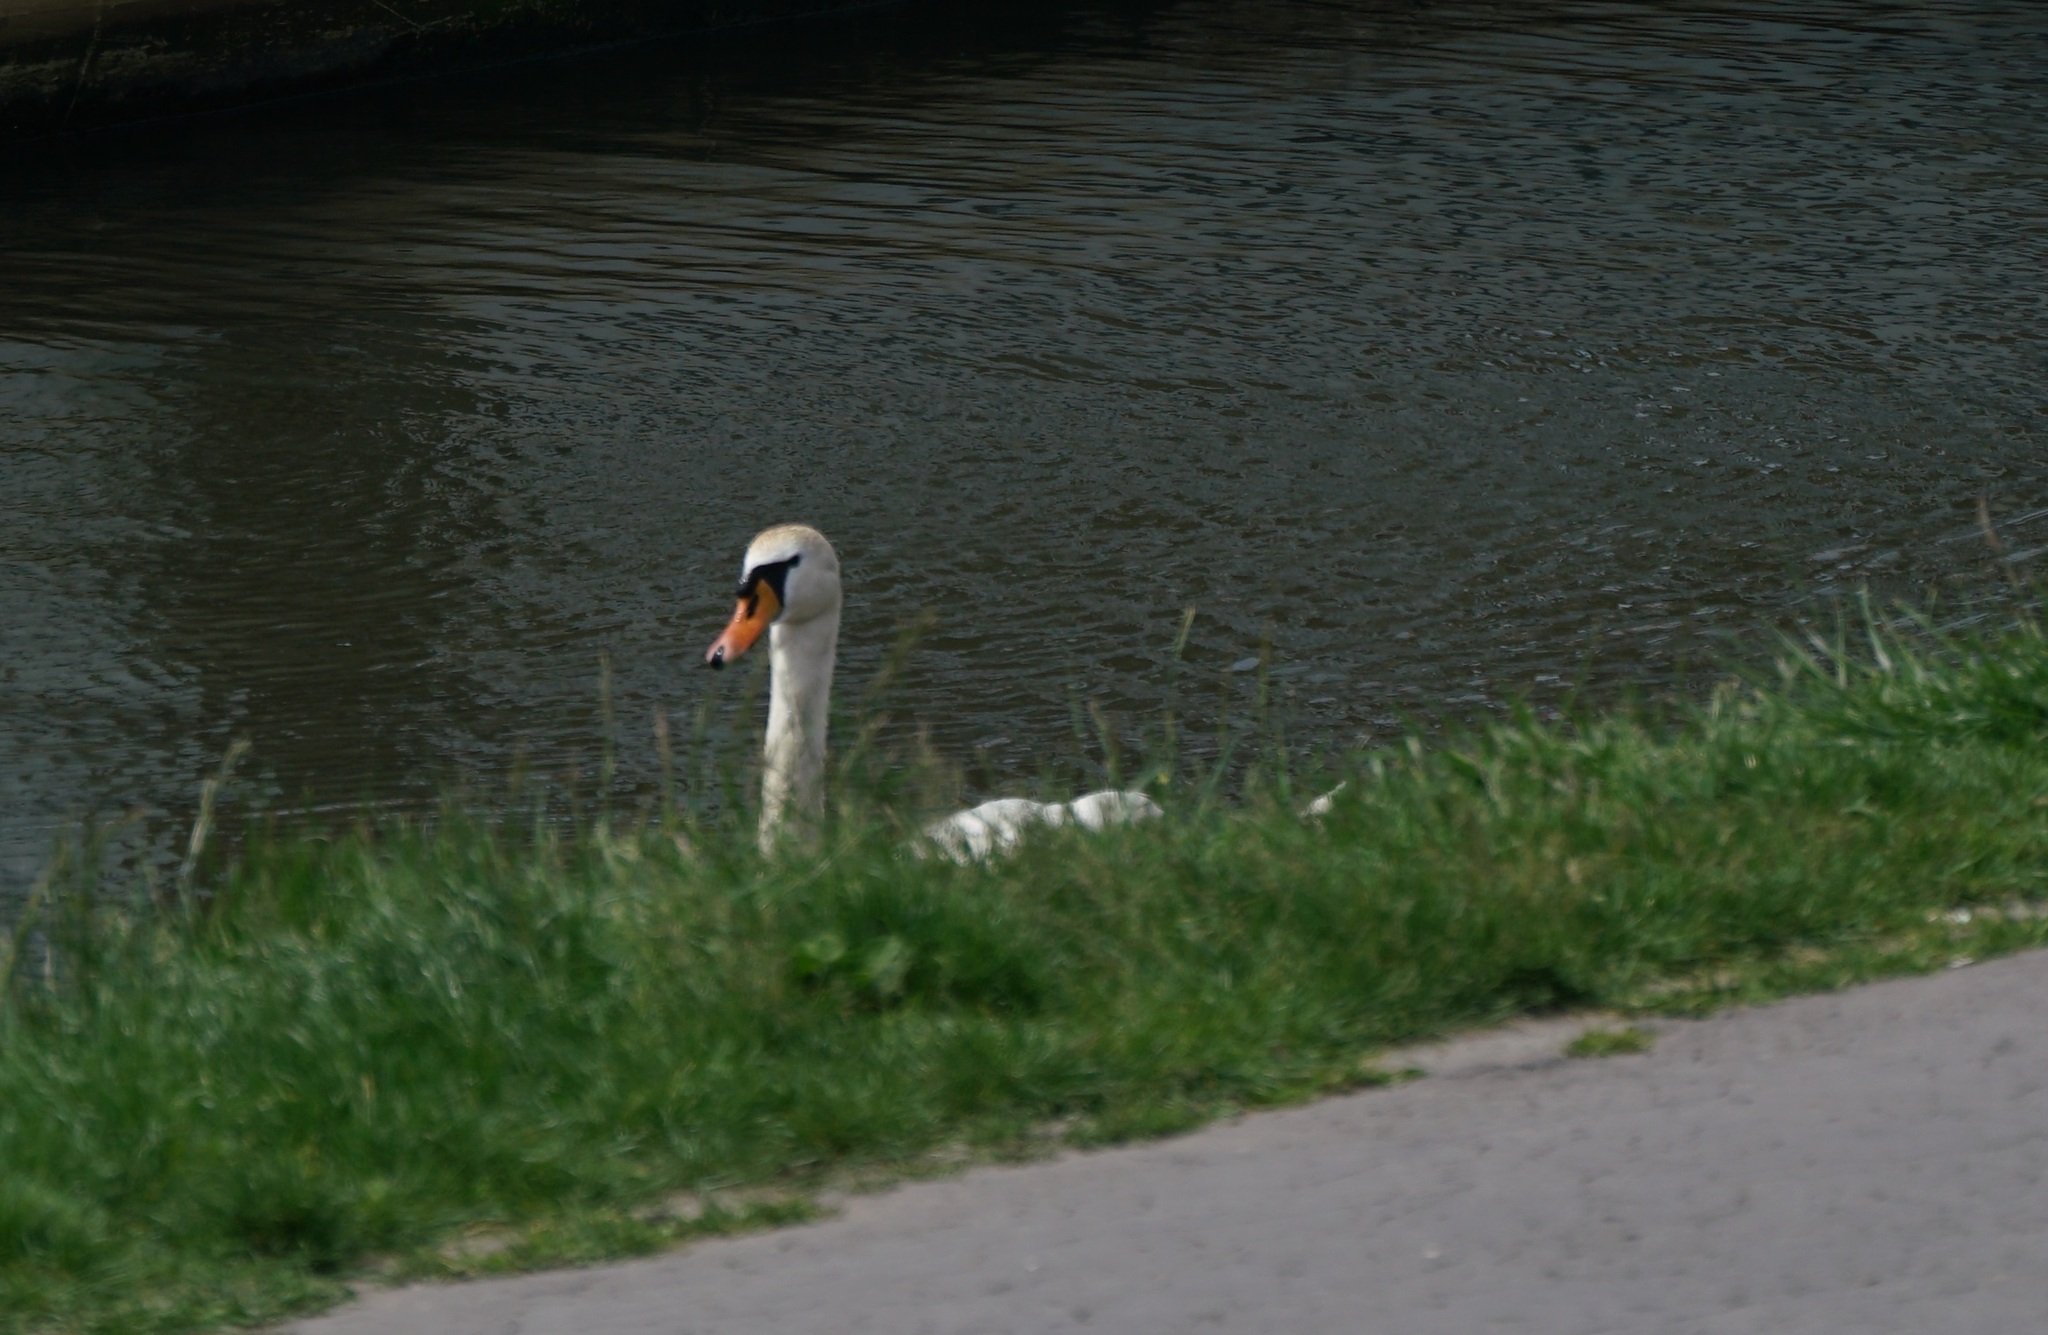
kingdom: Animalia
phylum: Chordata
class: Aves
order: Anseriformes
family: Anatidae
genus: Cygnus
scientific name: Cygnus olor
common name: Mute swan
